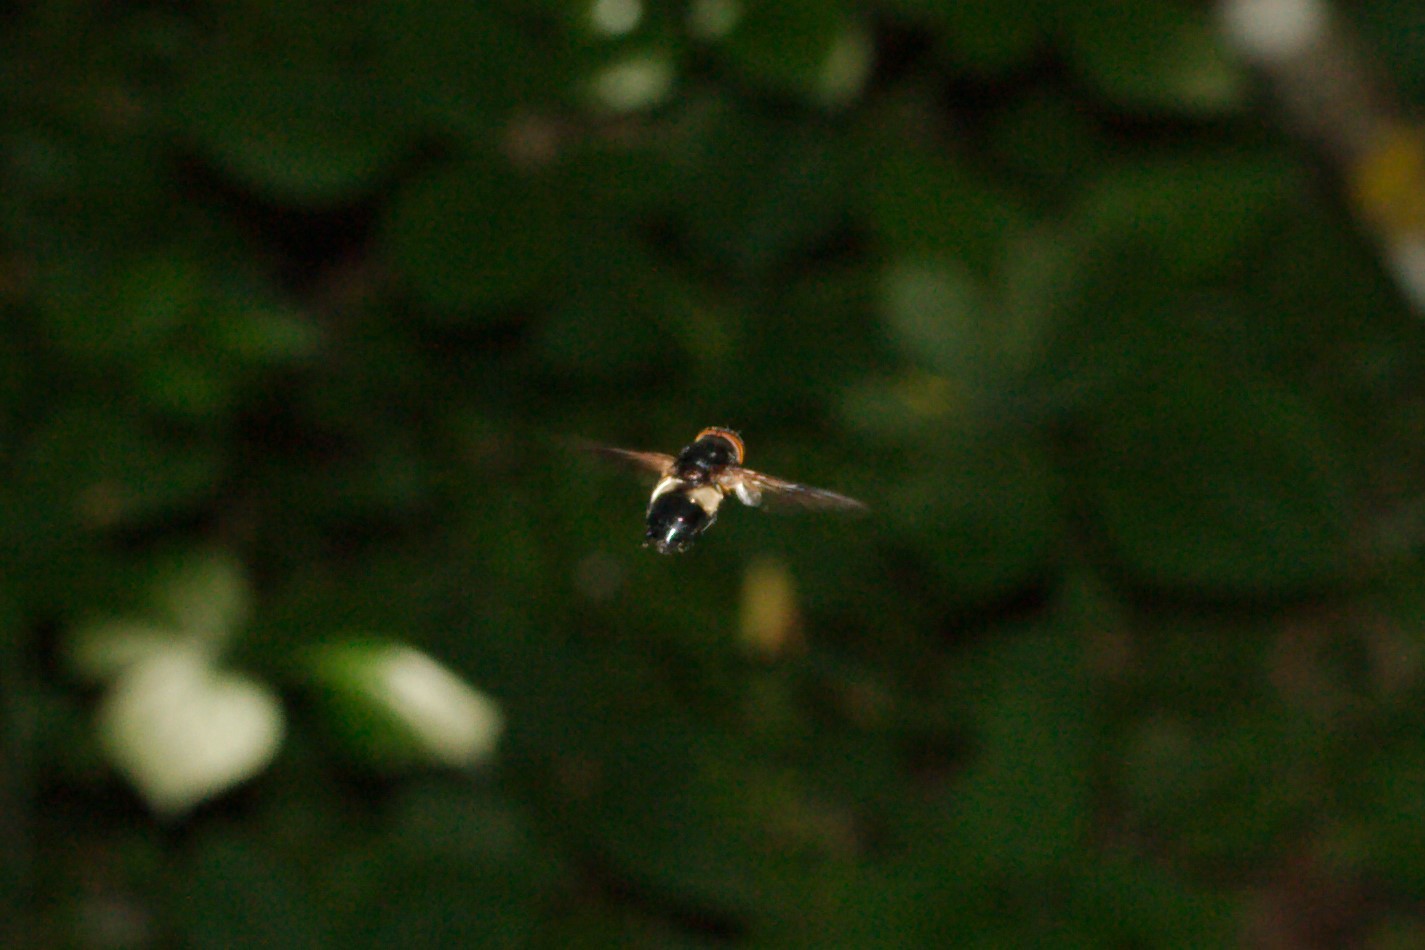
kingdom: Animalia
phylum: Arthropoda
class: Insecta
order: Diptera
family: Syrphidae
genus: Volucella
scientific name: Volucella pellucens
